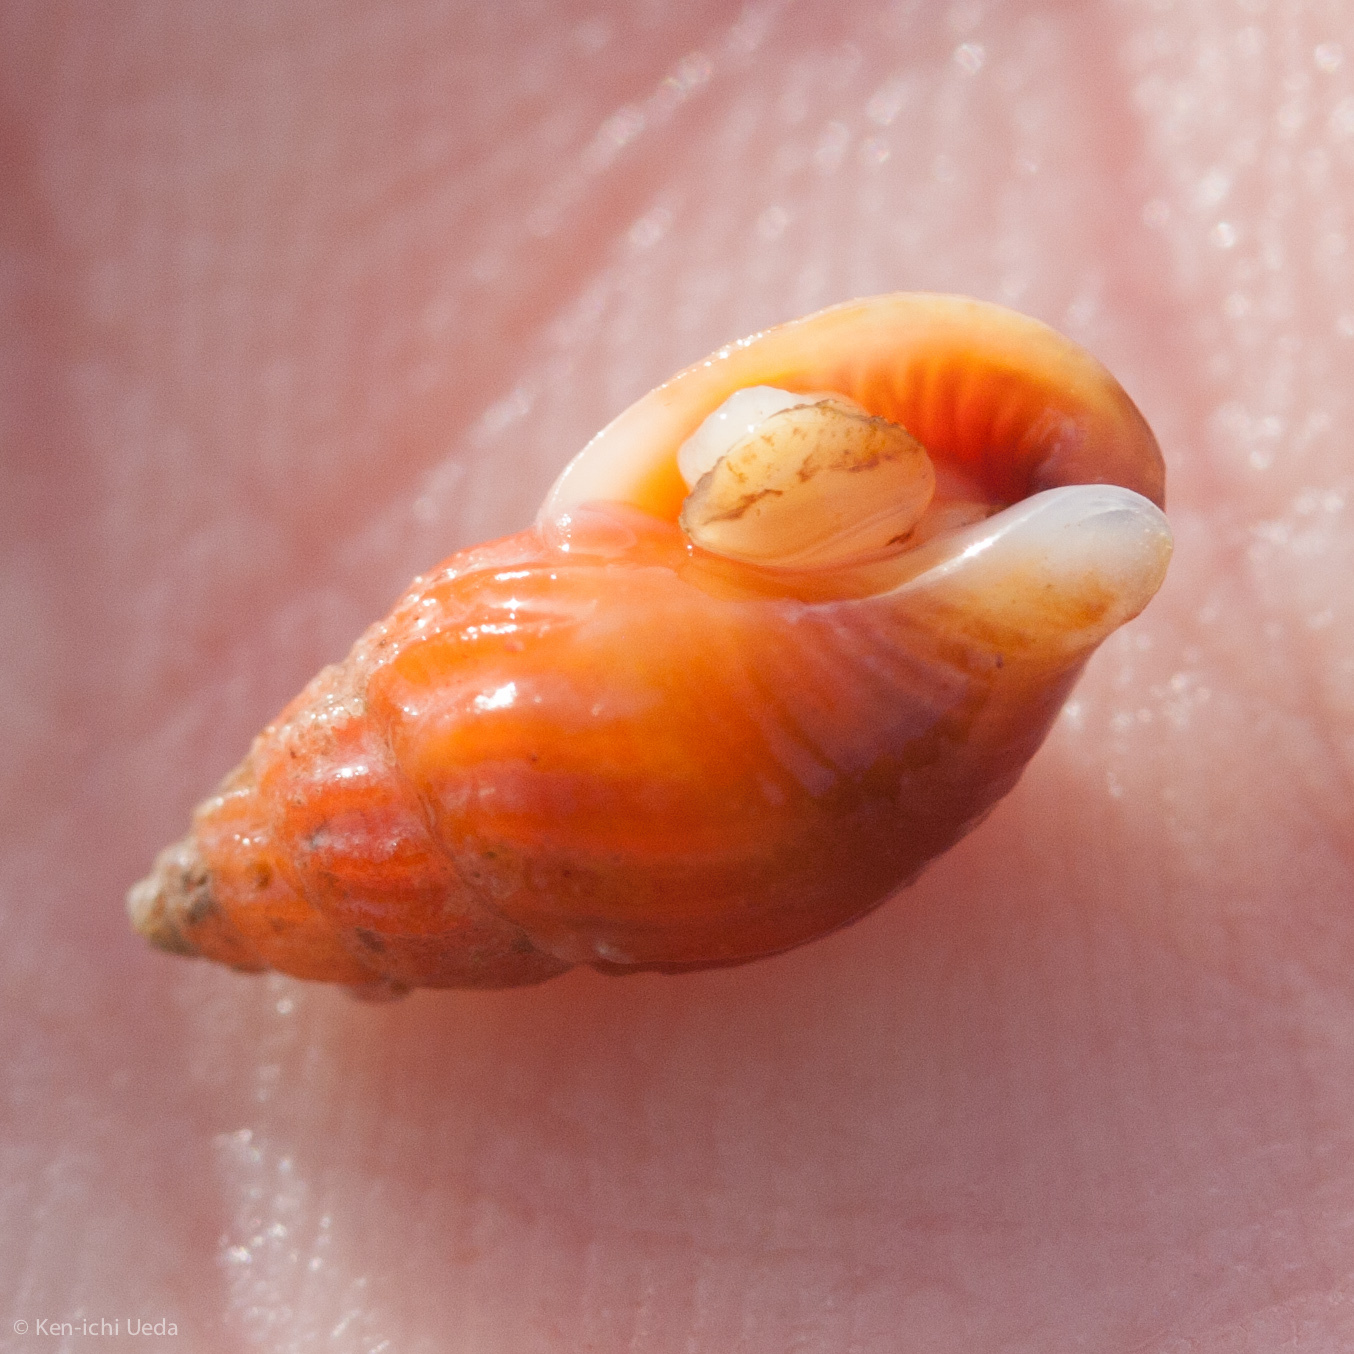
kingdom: Animalia
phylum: Mollusca
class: Gastropoda
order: Neogastropoda
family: Columbellidae
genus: Amphissa
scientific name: Amphissa versicolor
